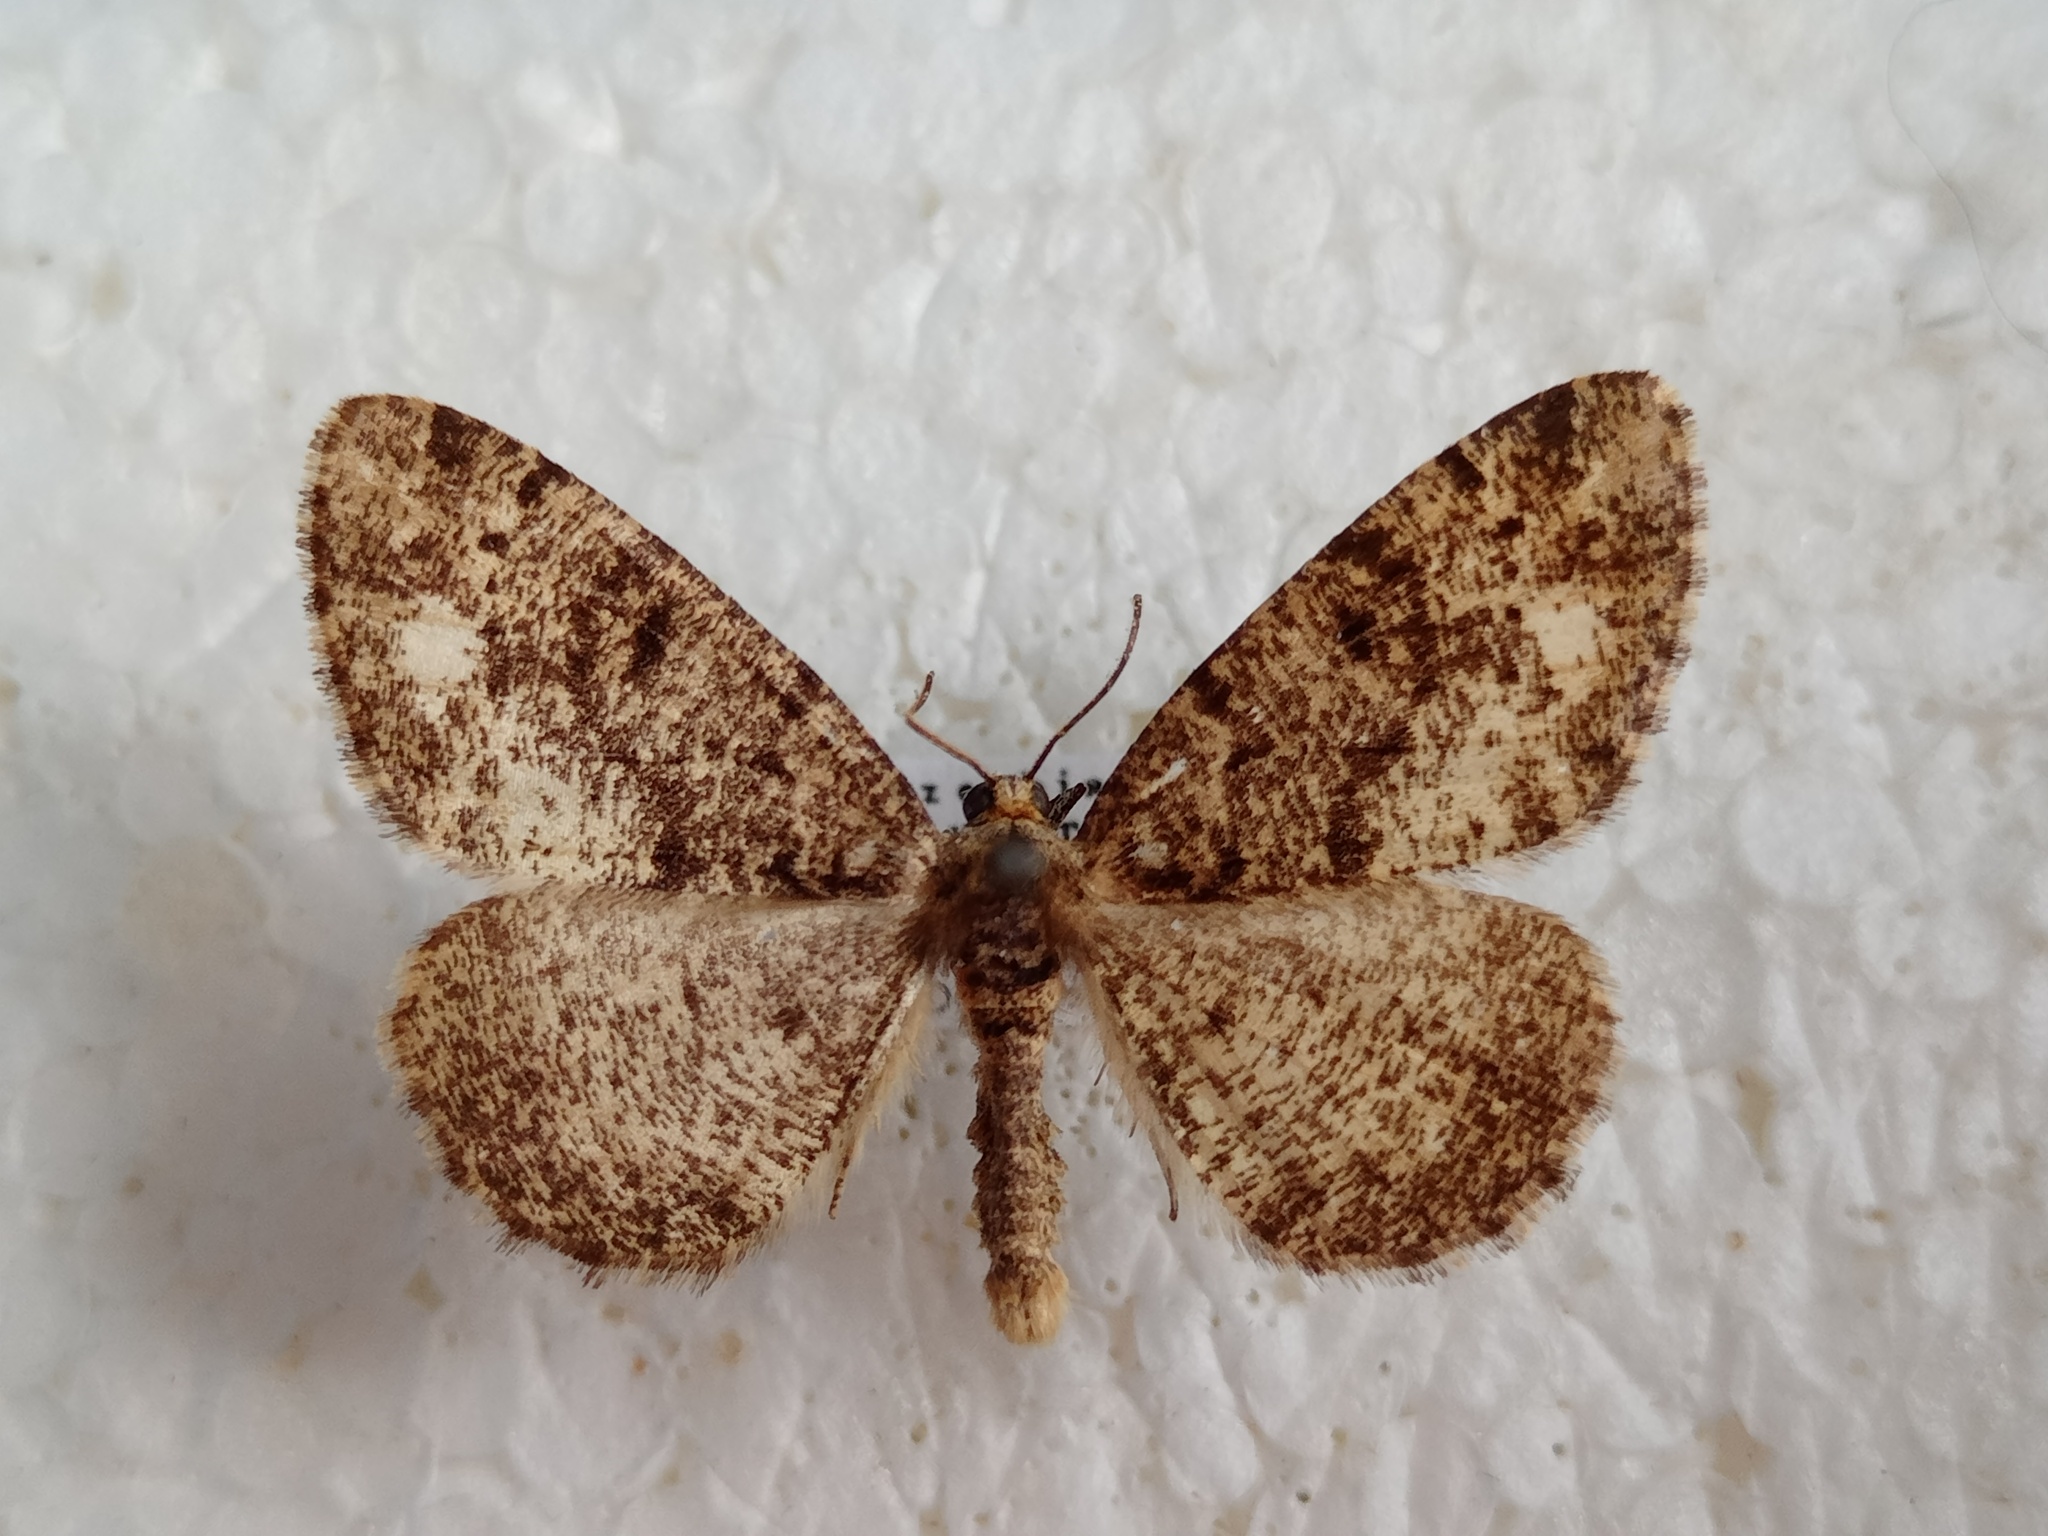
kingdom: Animalia
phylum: Arthropoda
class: Insecta
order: Lepidoptera
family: Geometridae
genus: Parectropis
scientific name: Parectropis similaria
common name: Brindled white-spot
